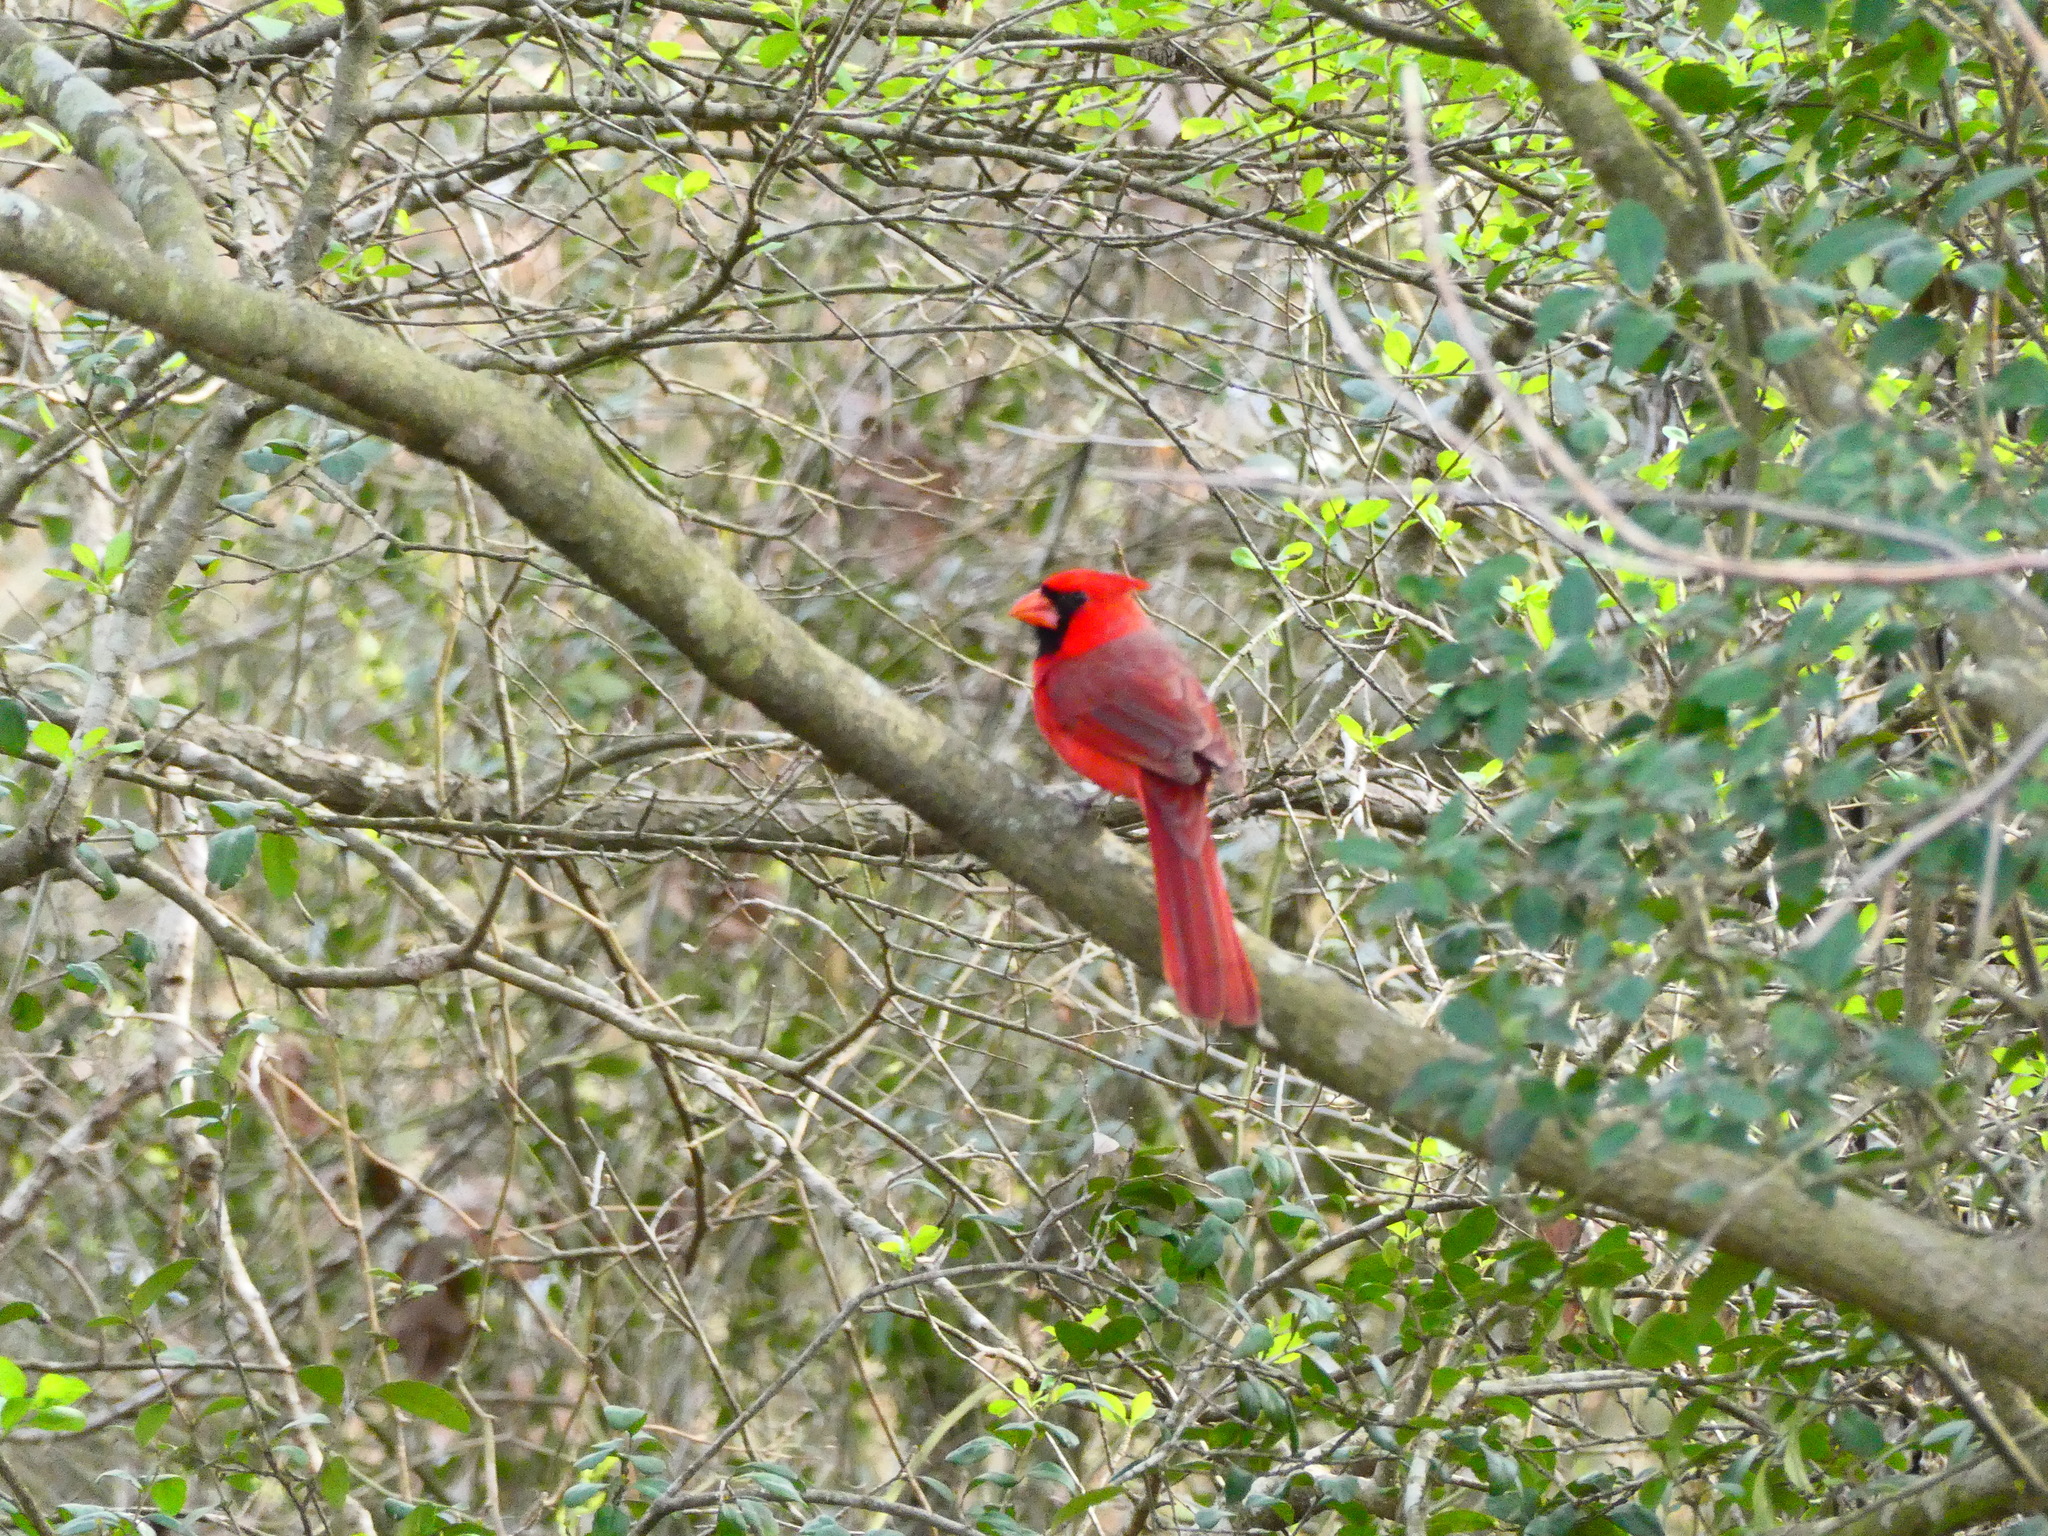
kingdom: Animalia
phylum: Chordata
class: Aves
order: Passeriformes
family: Cardinalidae
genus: Cardinalis
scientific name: Cardinalis cardinalis
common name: Northern cardinal
